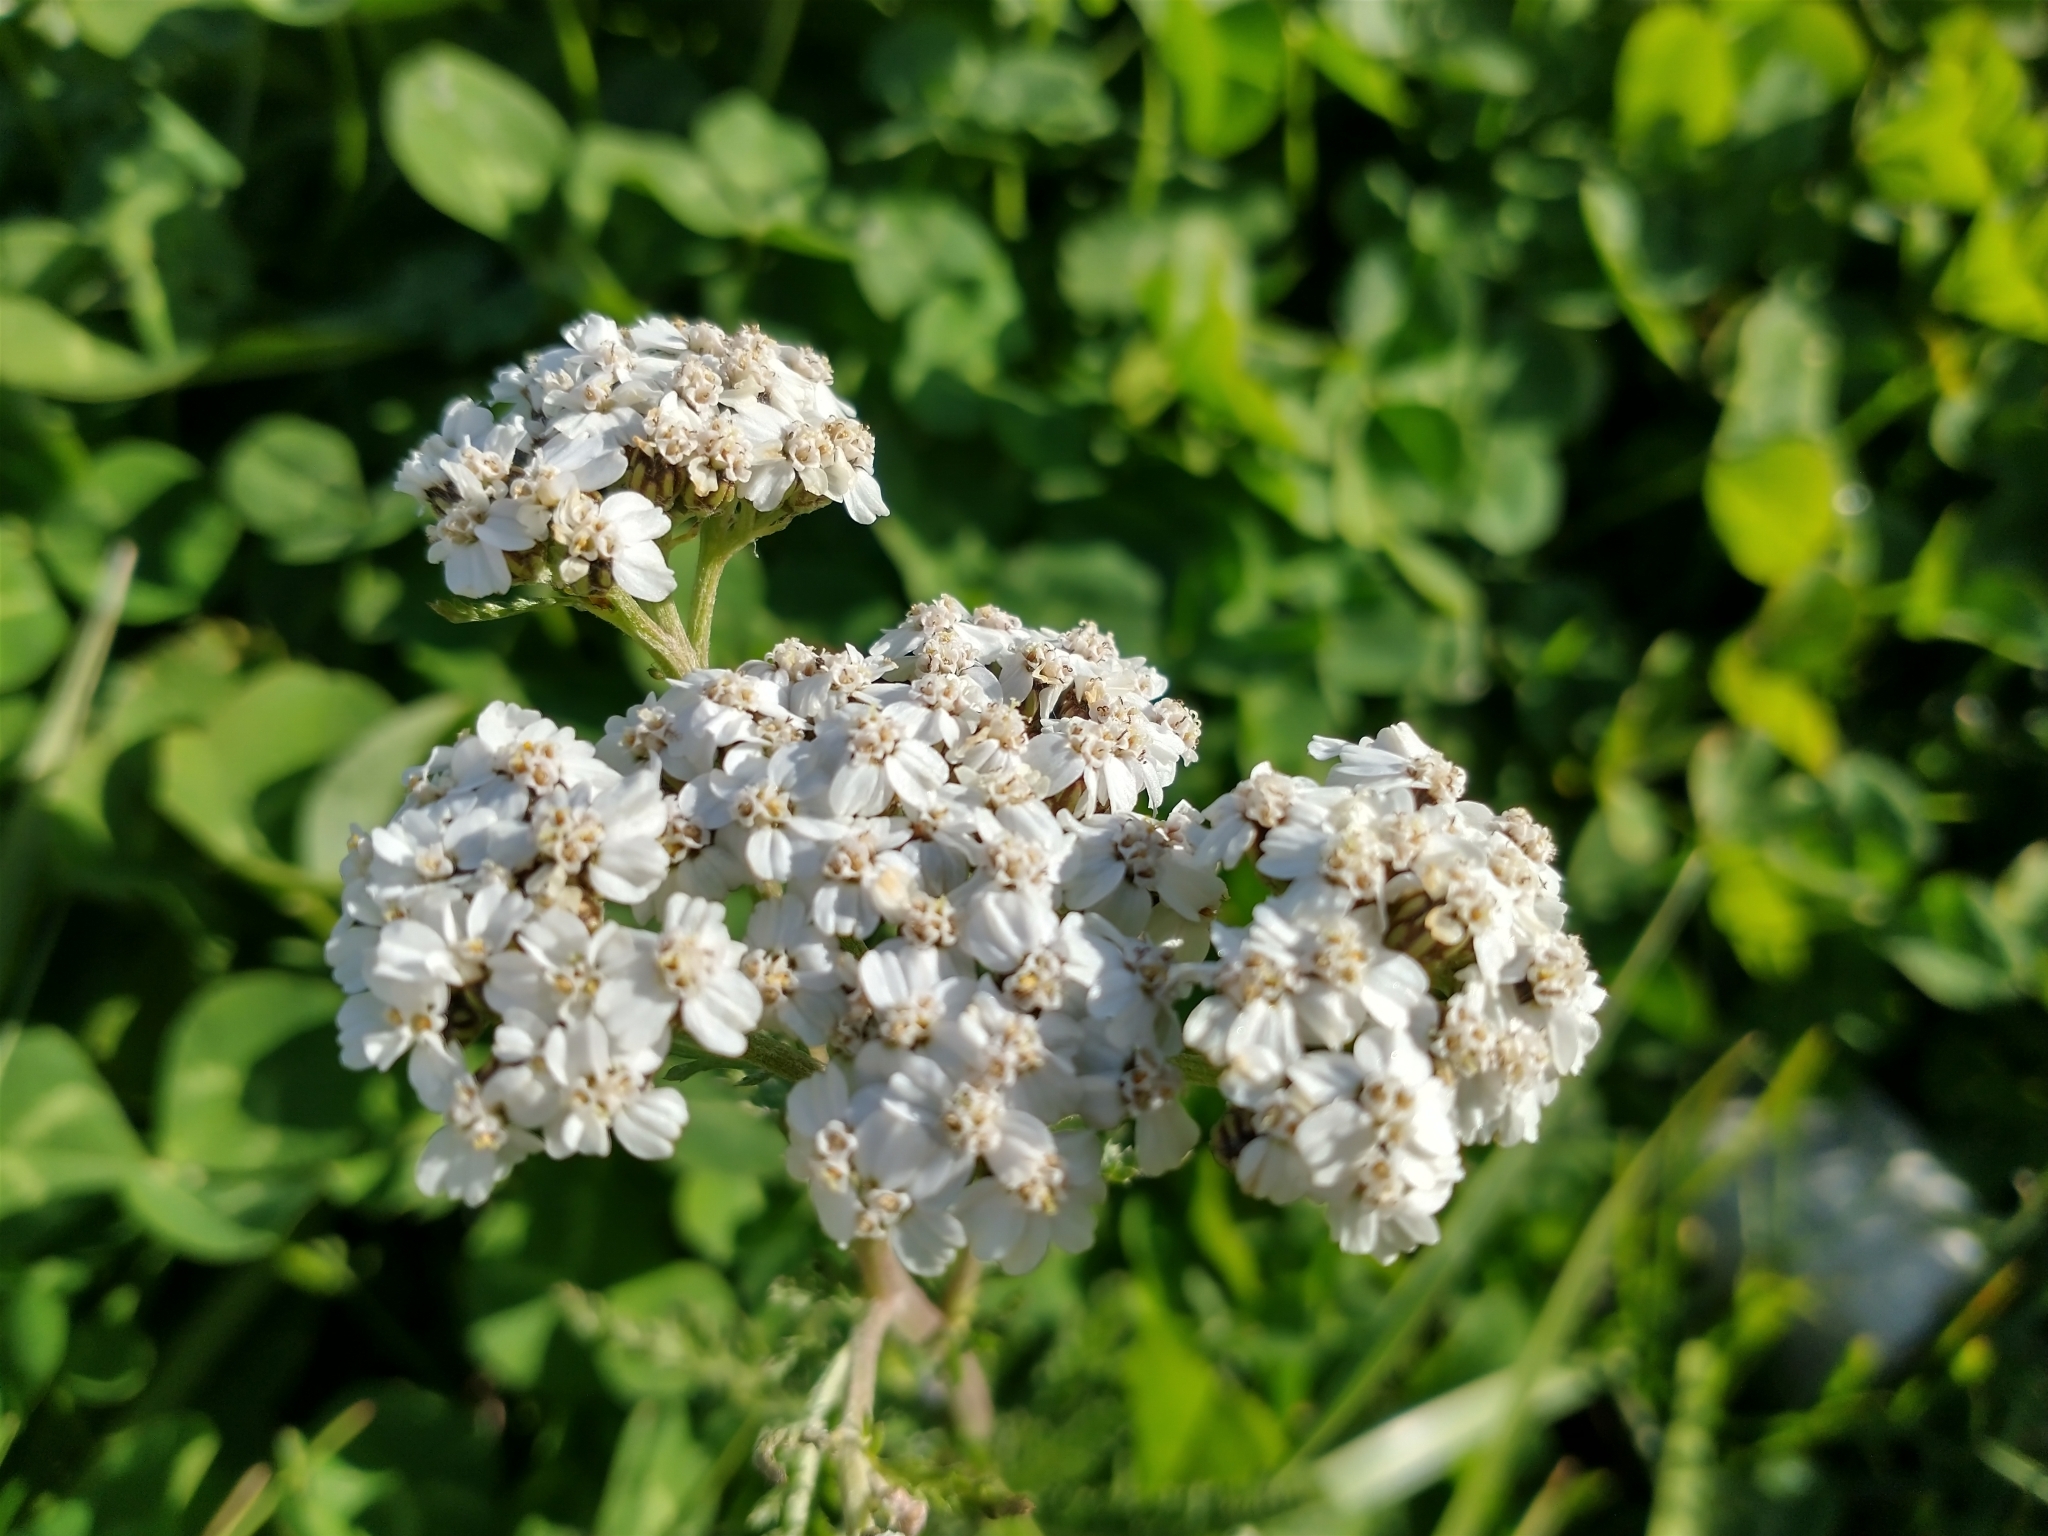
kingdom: Plantae
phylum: Tracheophyta
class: Magnoliopsida
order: Asterales
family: Asteraceae
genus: Achillea
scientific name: Achillea millefolium
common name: Yarrow
